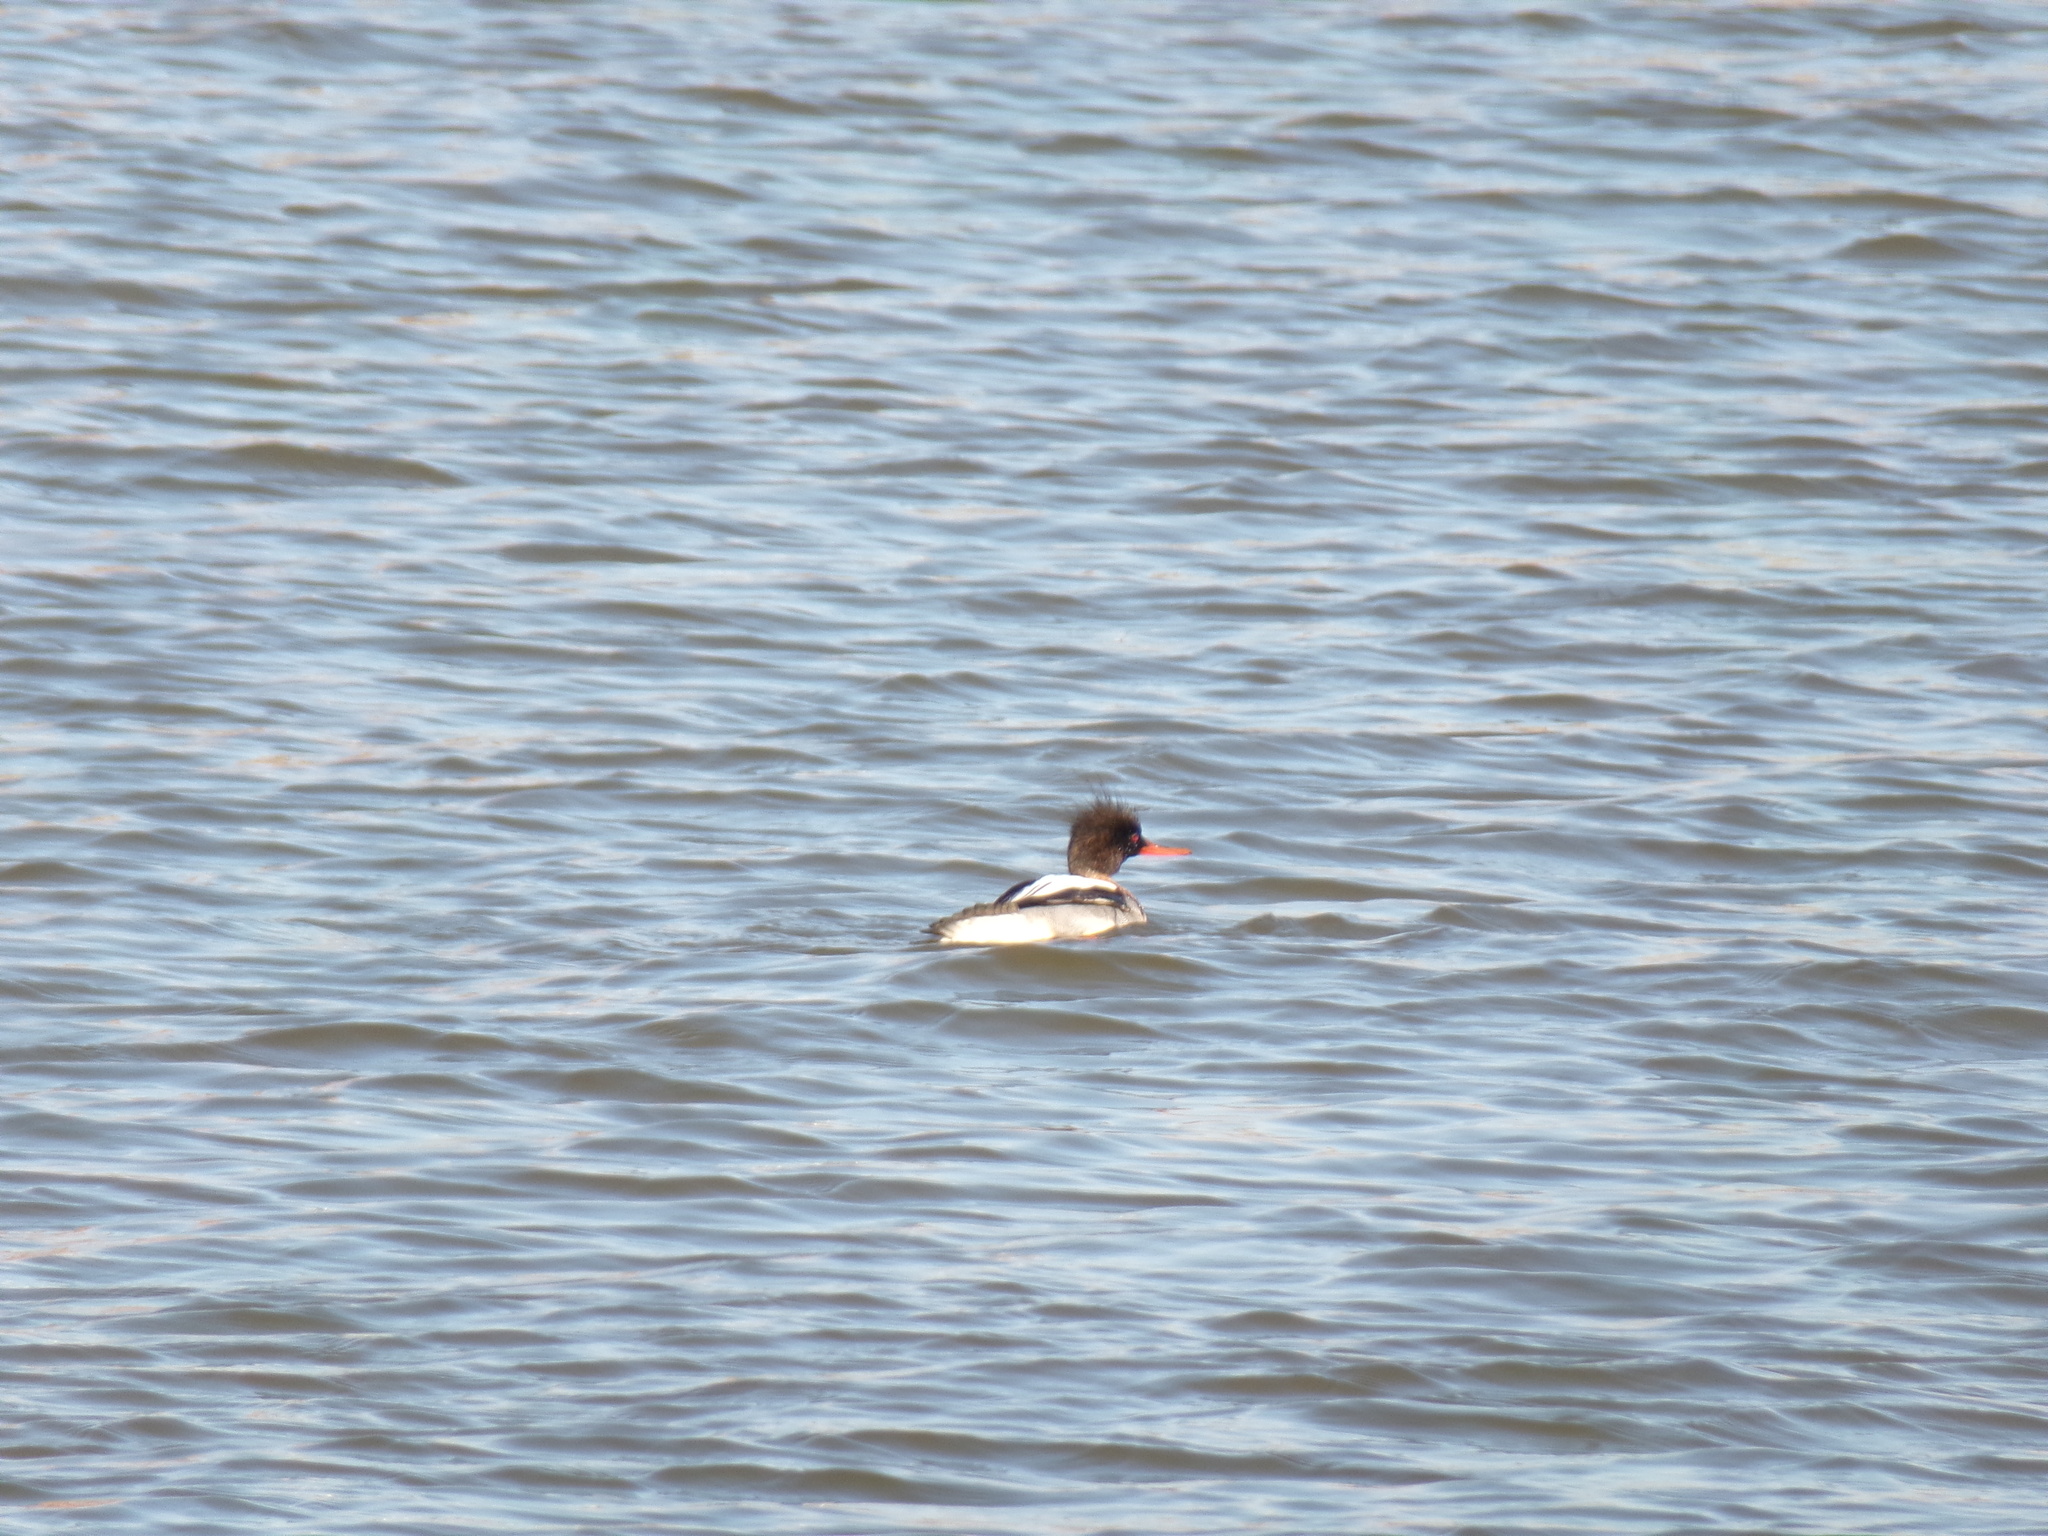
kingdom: Animalia
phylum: Chordata
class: Aves
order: Anseriformes
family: Anatidae
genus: Mergus
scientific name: Mergus serrator
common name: Red-breasted merganser
